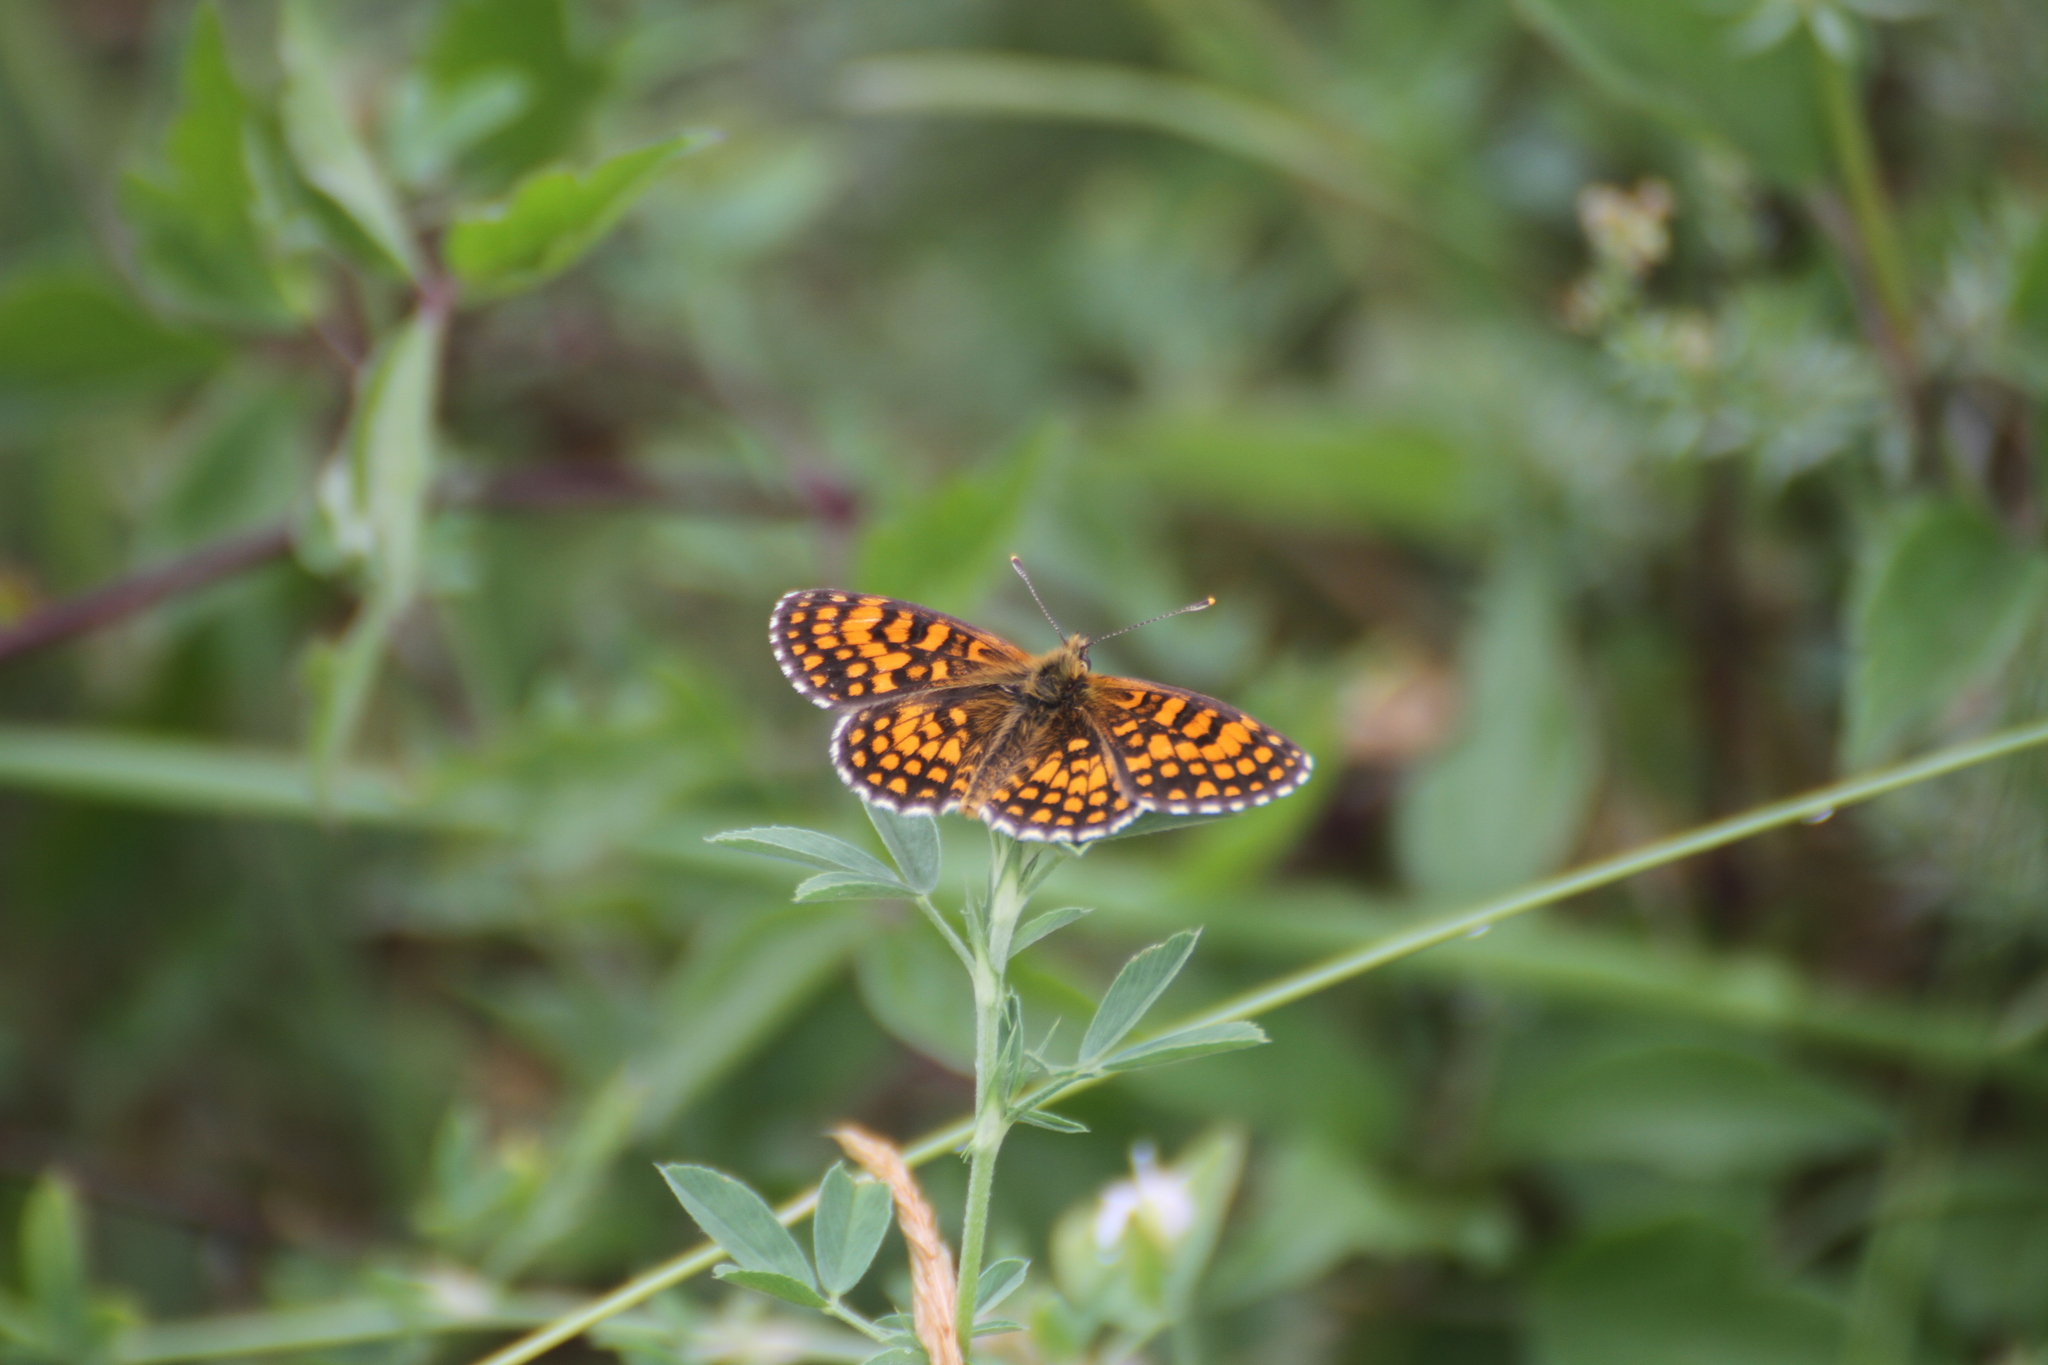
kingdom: Animalia
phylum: Arthropoda
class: Insecta
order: Lepidoptera
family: Nymphalidae
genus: Mellicta
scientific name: Mellicta athalia
